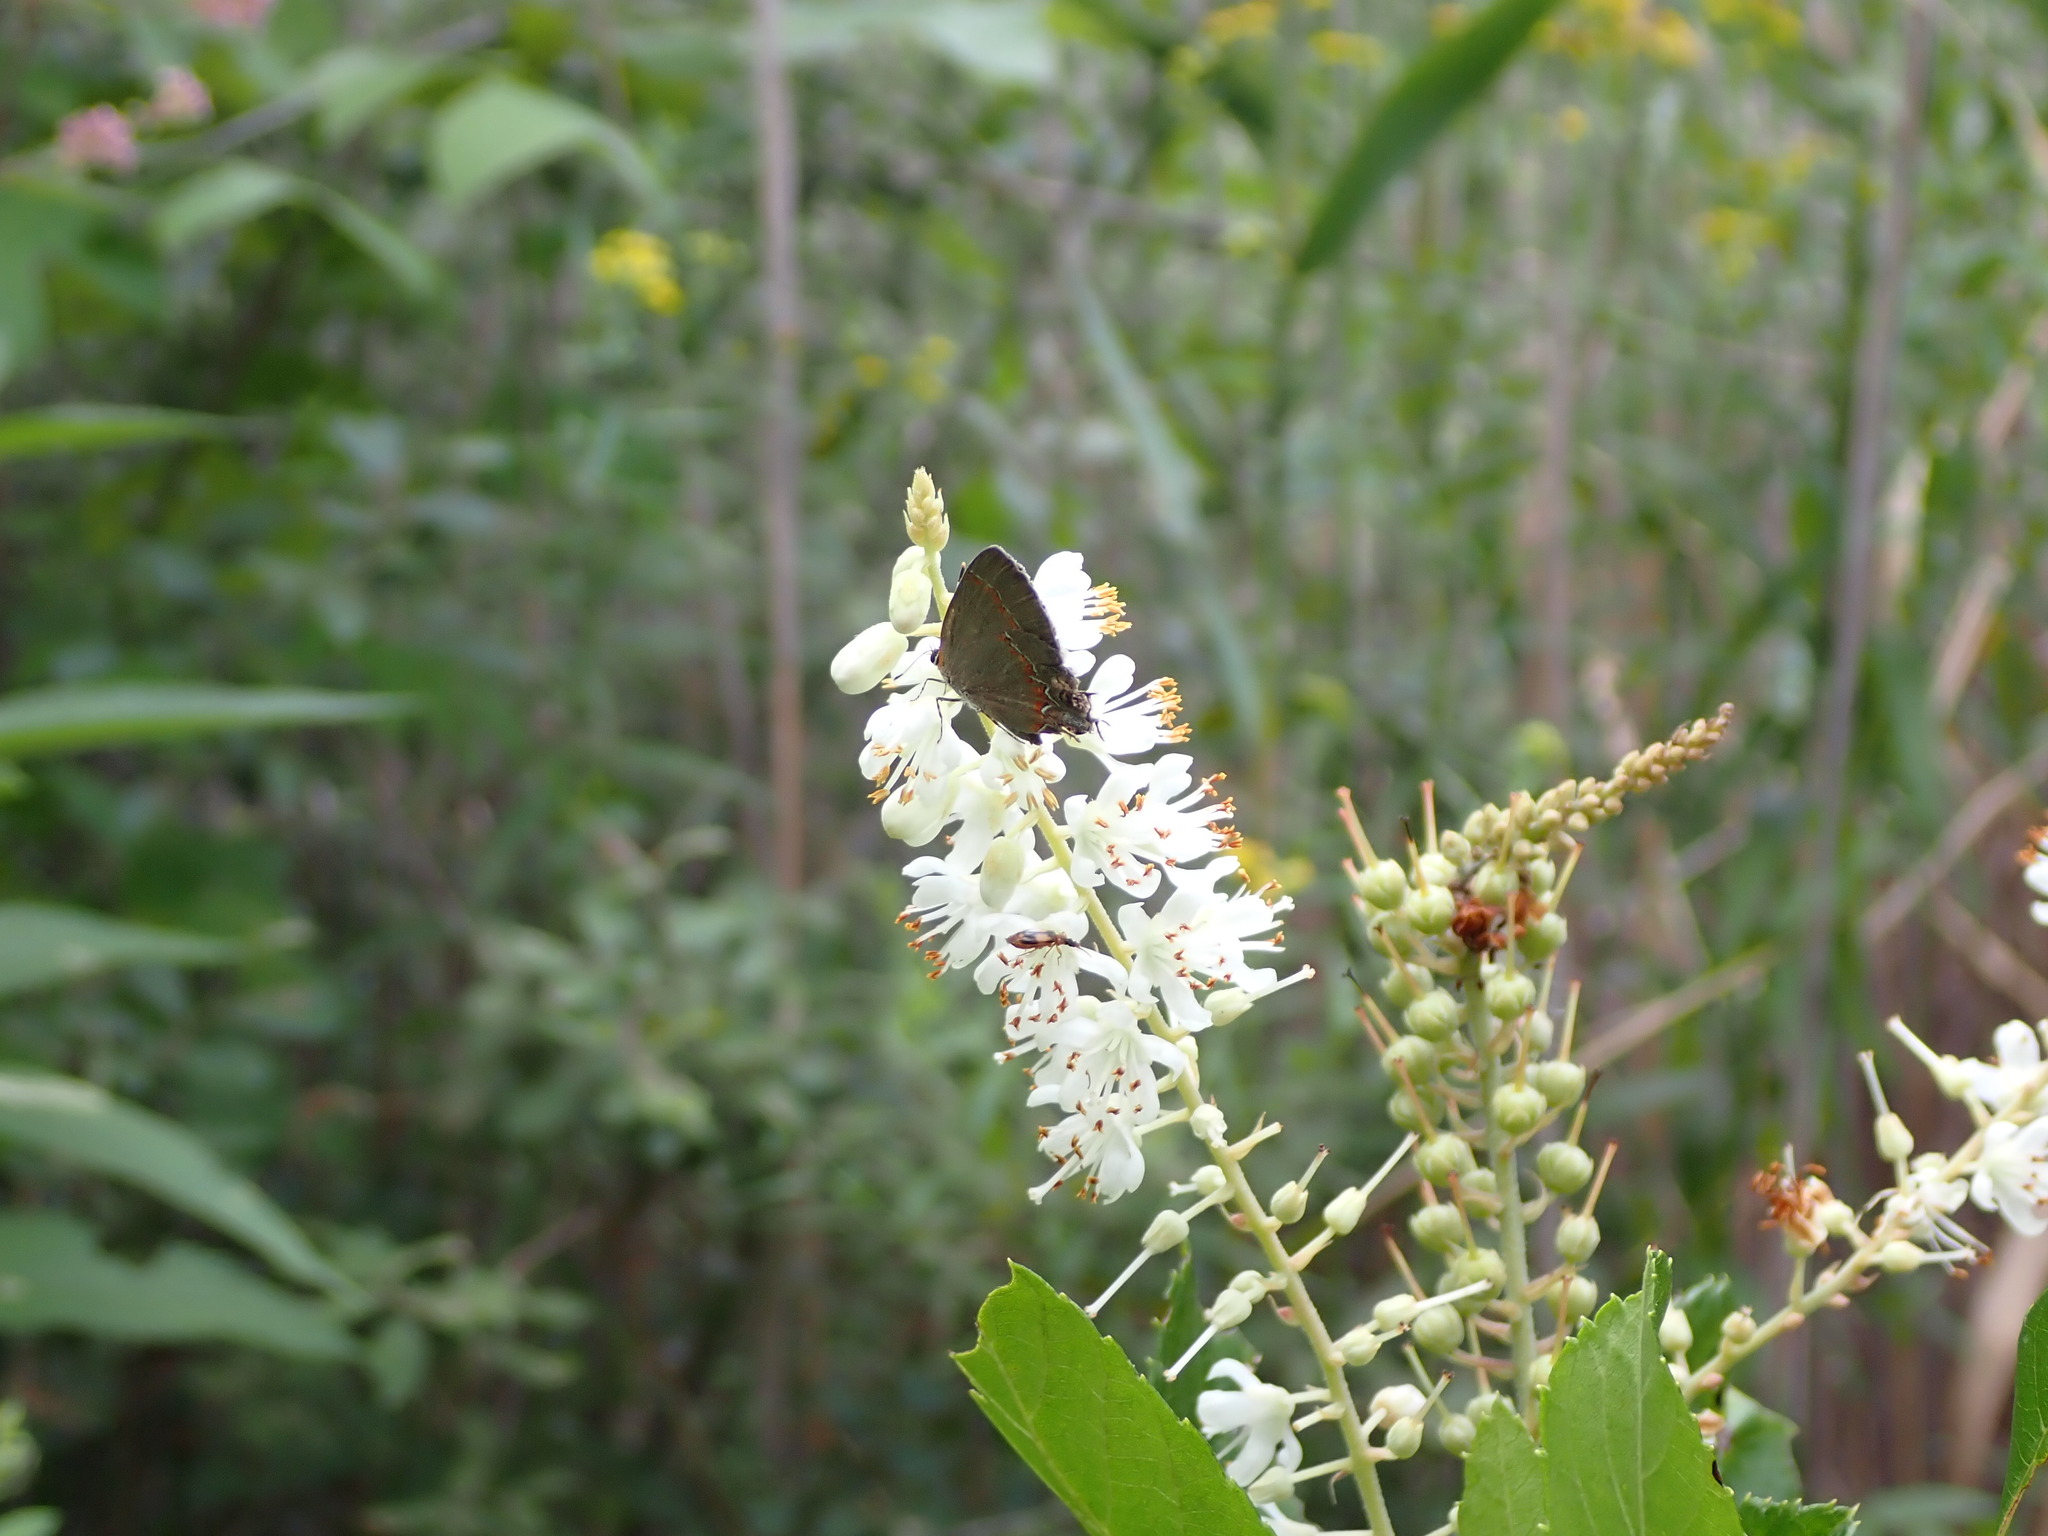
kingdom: Animalia
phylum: Arthropoda
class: Insecta
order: Lepidoptera
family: Lycaenidae
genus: Calycopis
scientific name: Calycopis cecrops
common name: Red-banded hairstreak
